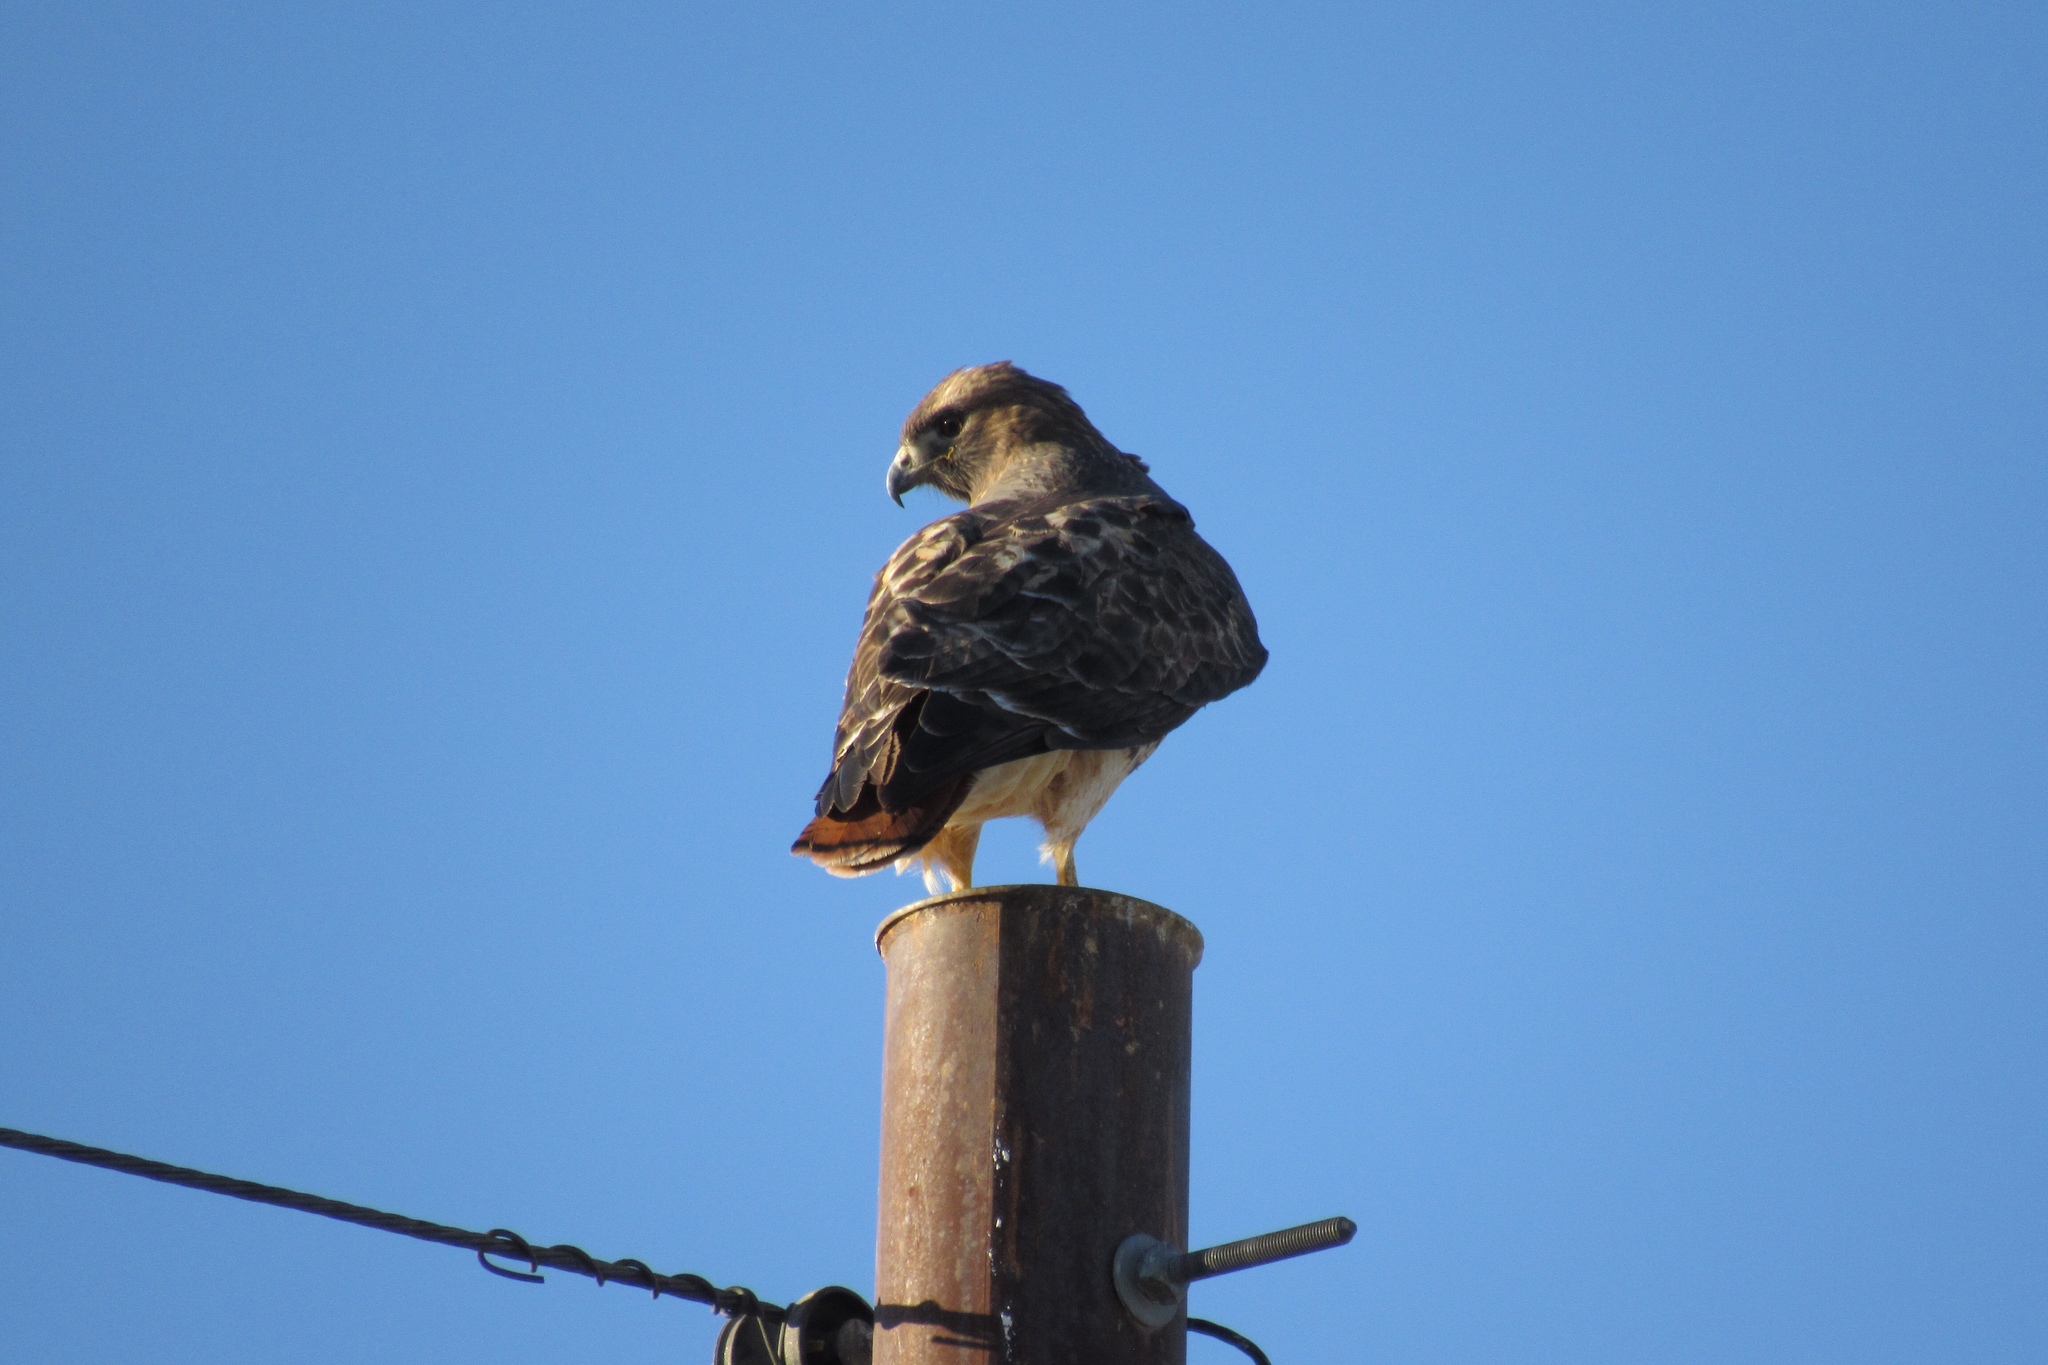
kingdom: Animalia
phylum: Chordata
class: Aves
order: Accipitriformes
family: Accipitridae
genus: Buteo
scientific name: Buteo jamaicensis
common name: Red-tailed hawk
